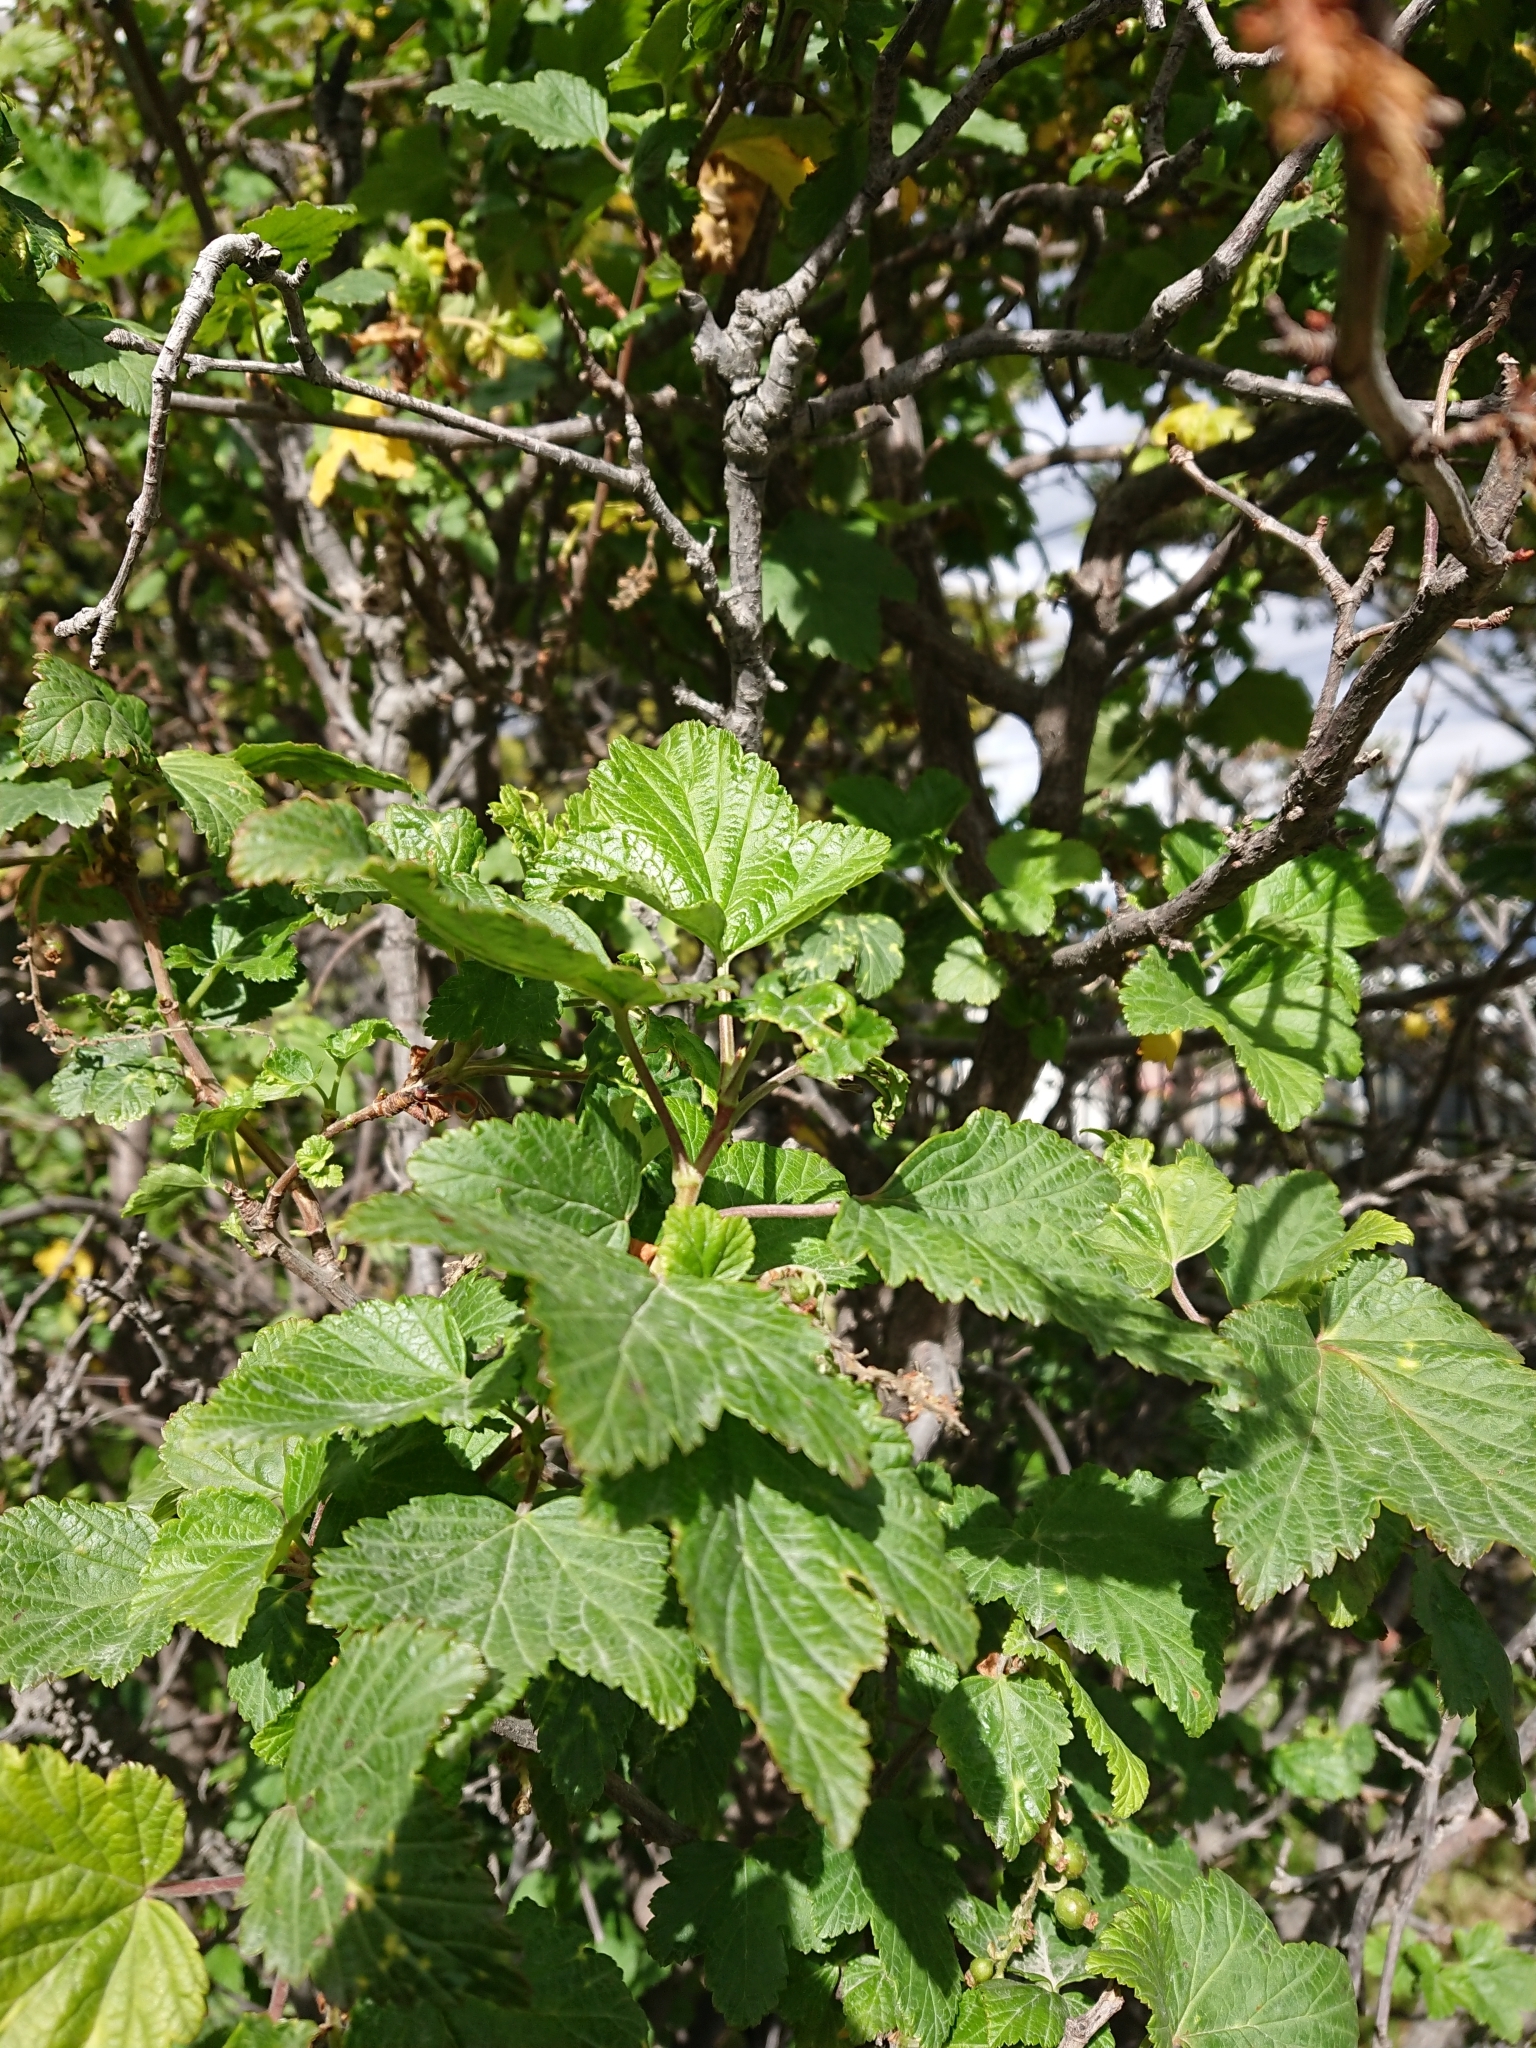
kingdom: Plantae
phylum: Tracheophyta
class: Magnoliopsida
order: Saxifragales
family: Grossulariaceae
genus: Ribes
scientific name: Ribes magellanicum
